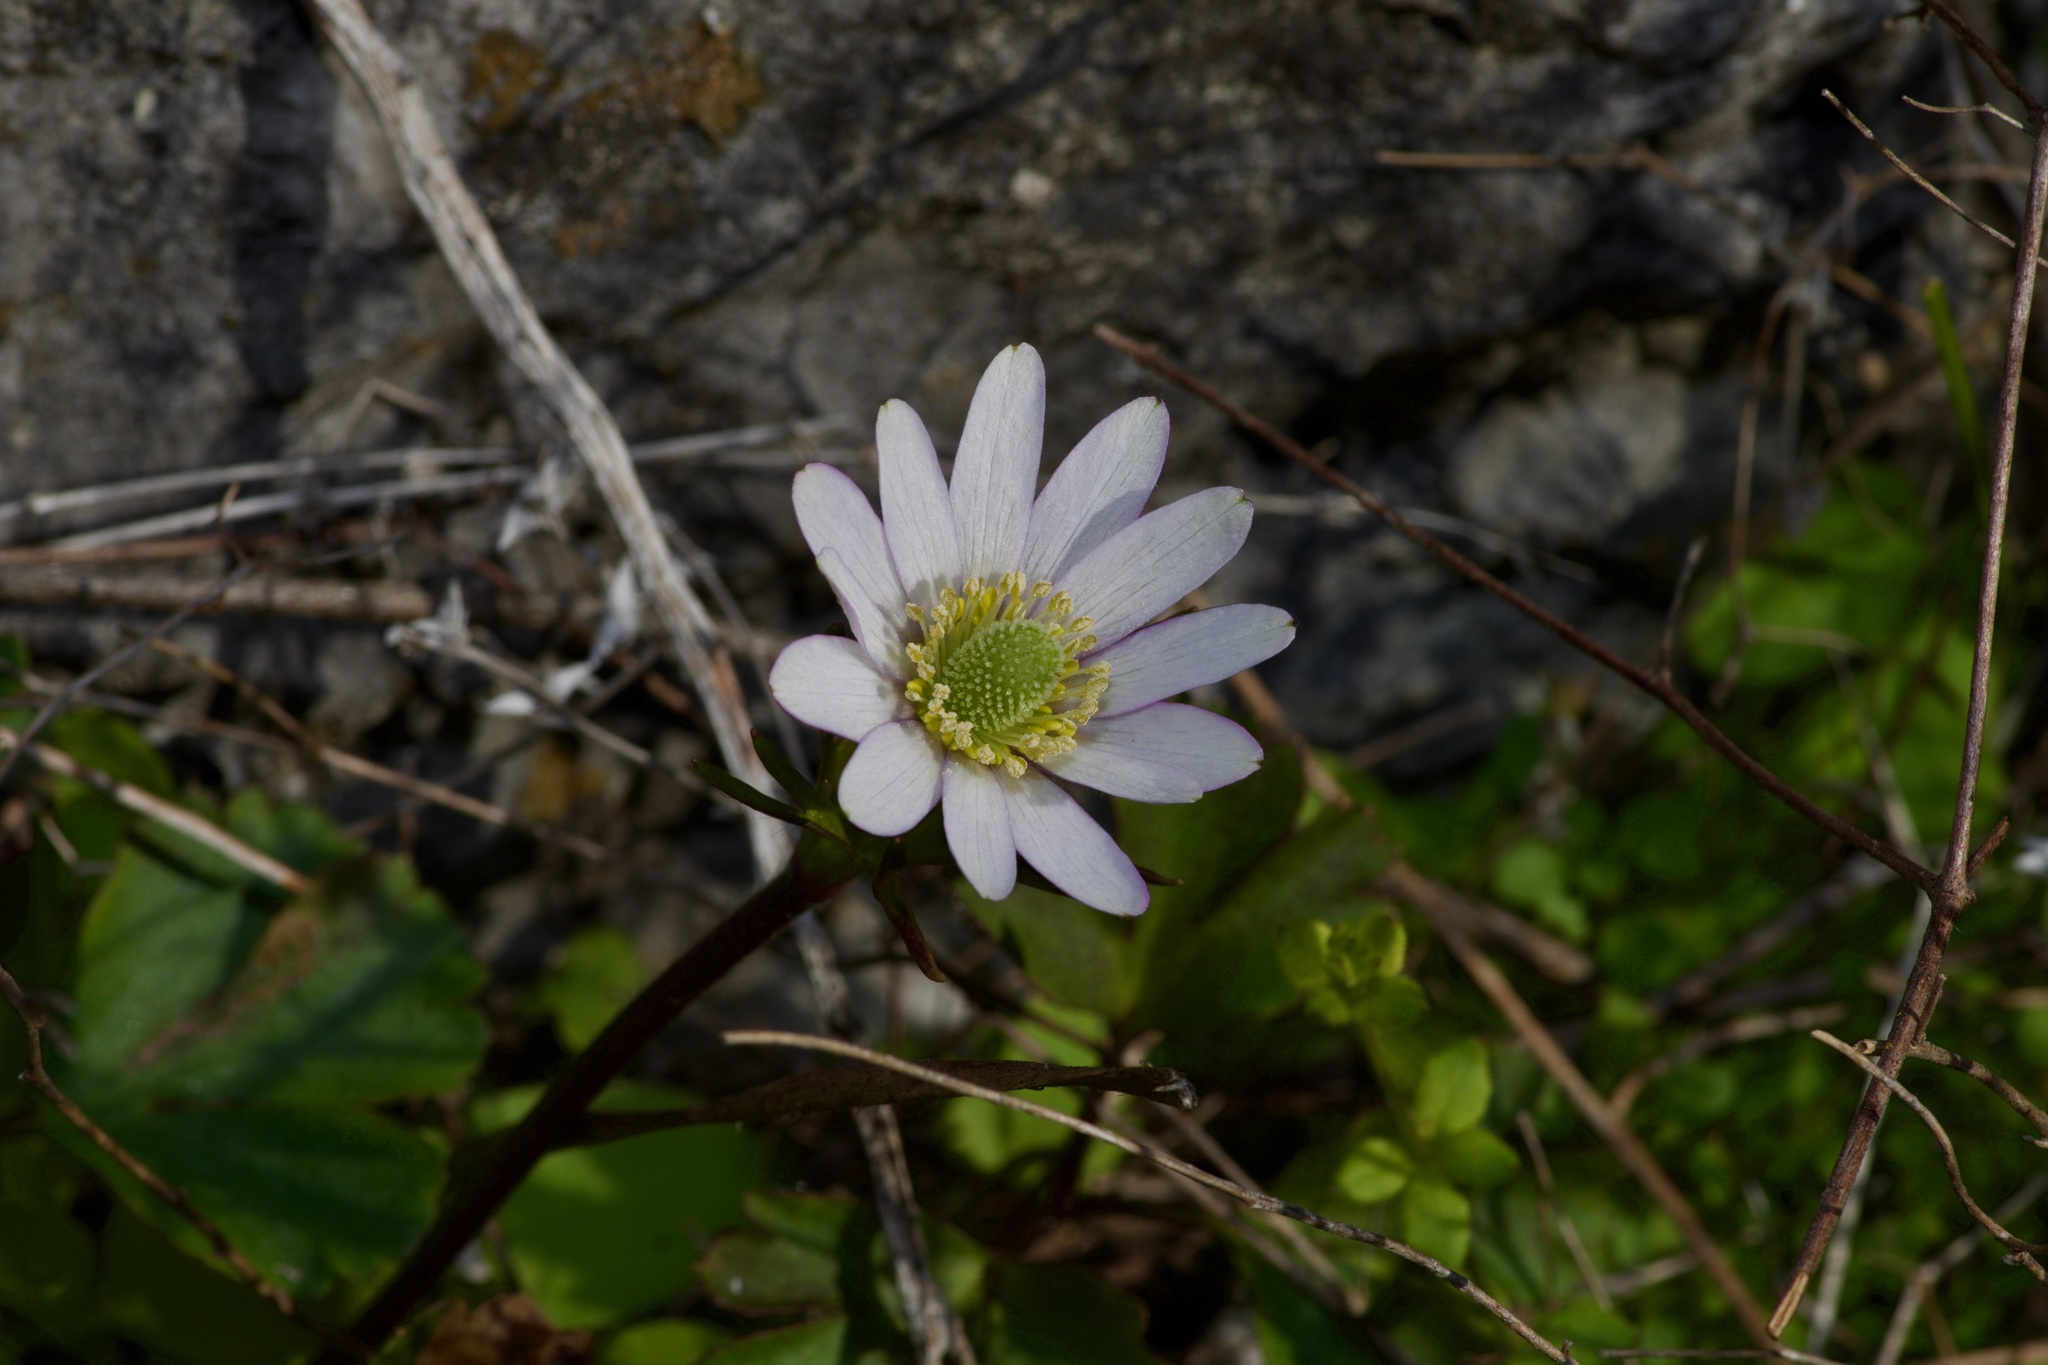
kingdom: Plantae
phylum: Tracheophyta
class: Magnoliopsida
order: Ranunculales
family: Ranunculaceae
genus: Anemone
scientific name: Anemone berlandieri
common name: Ten-petal anemone
